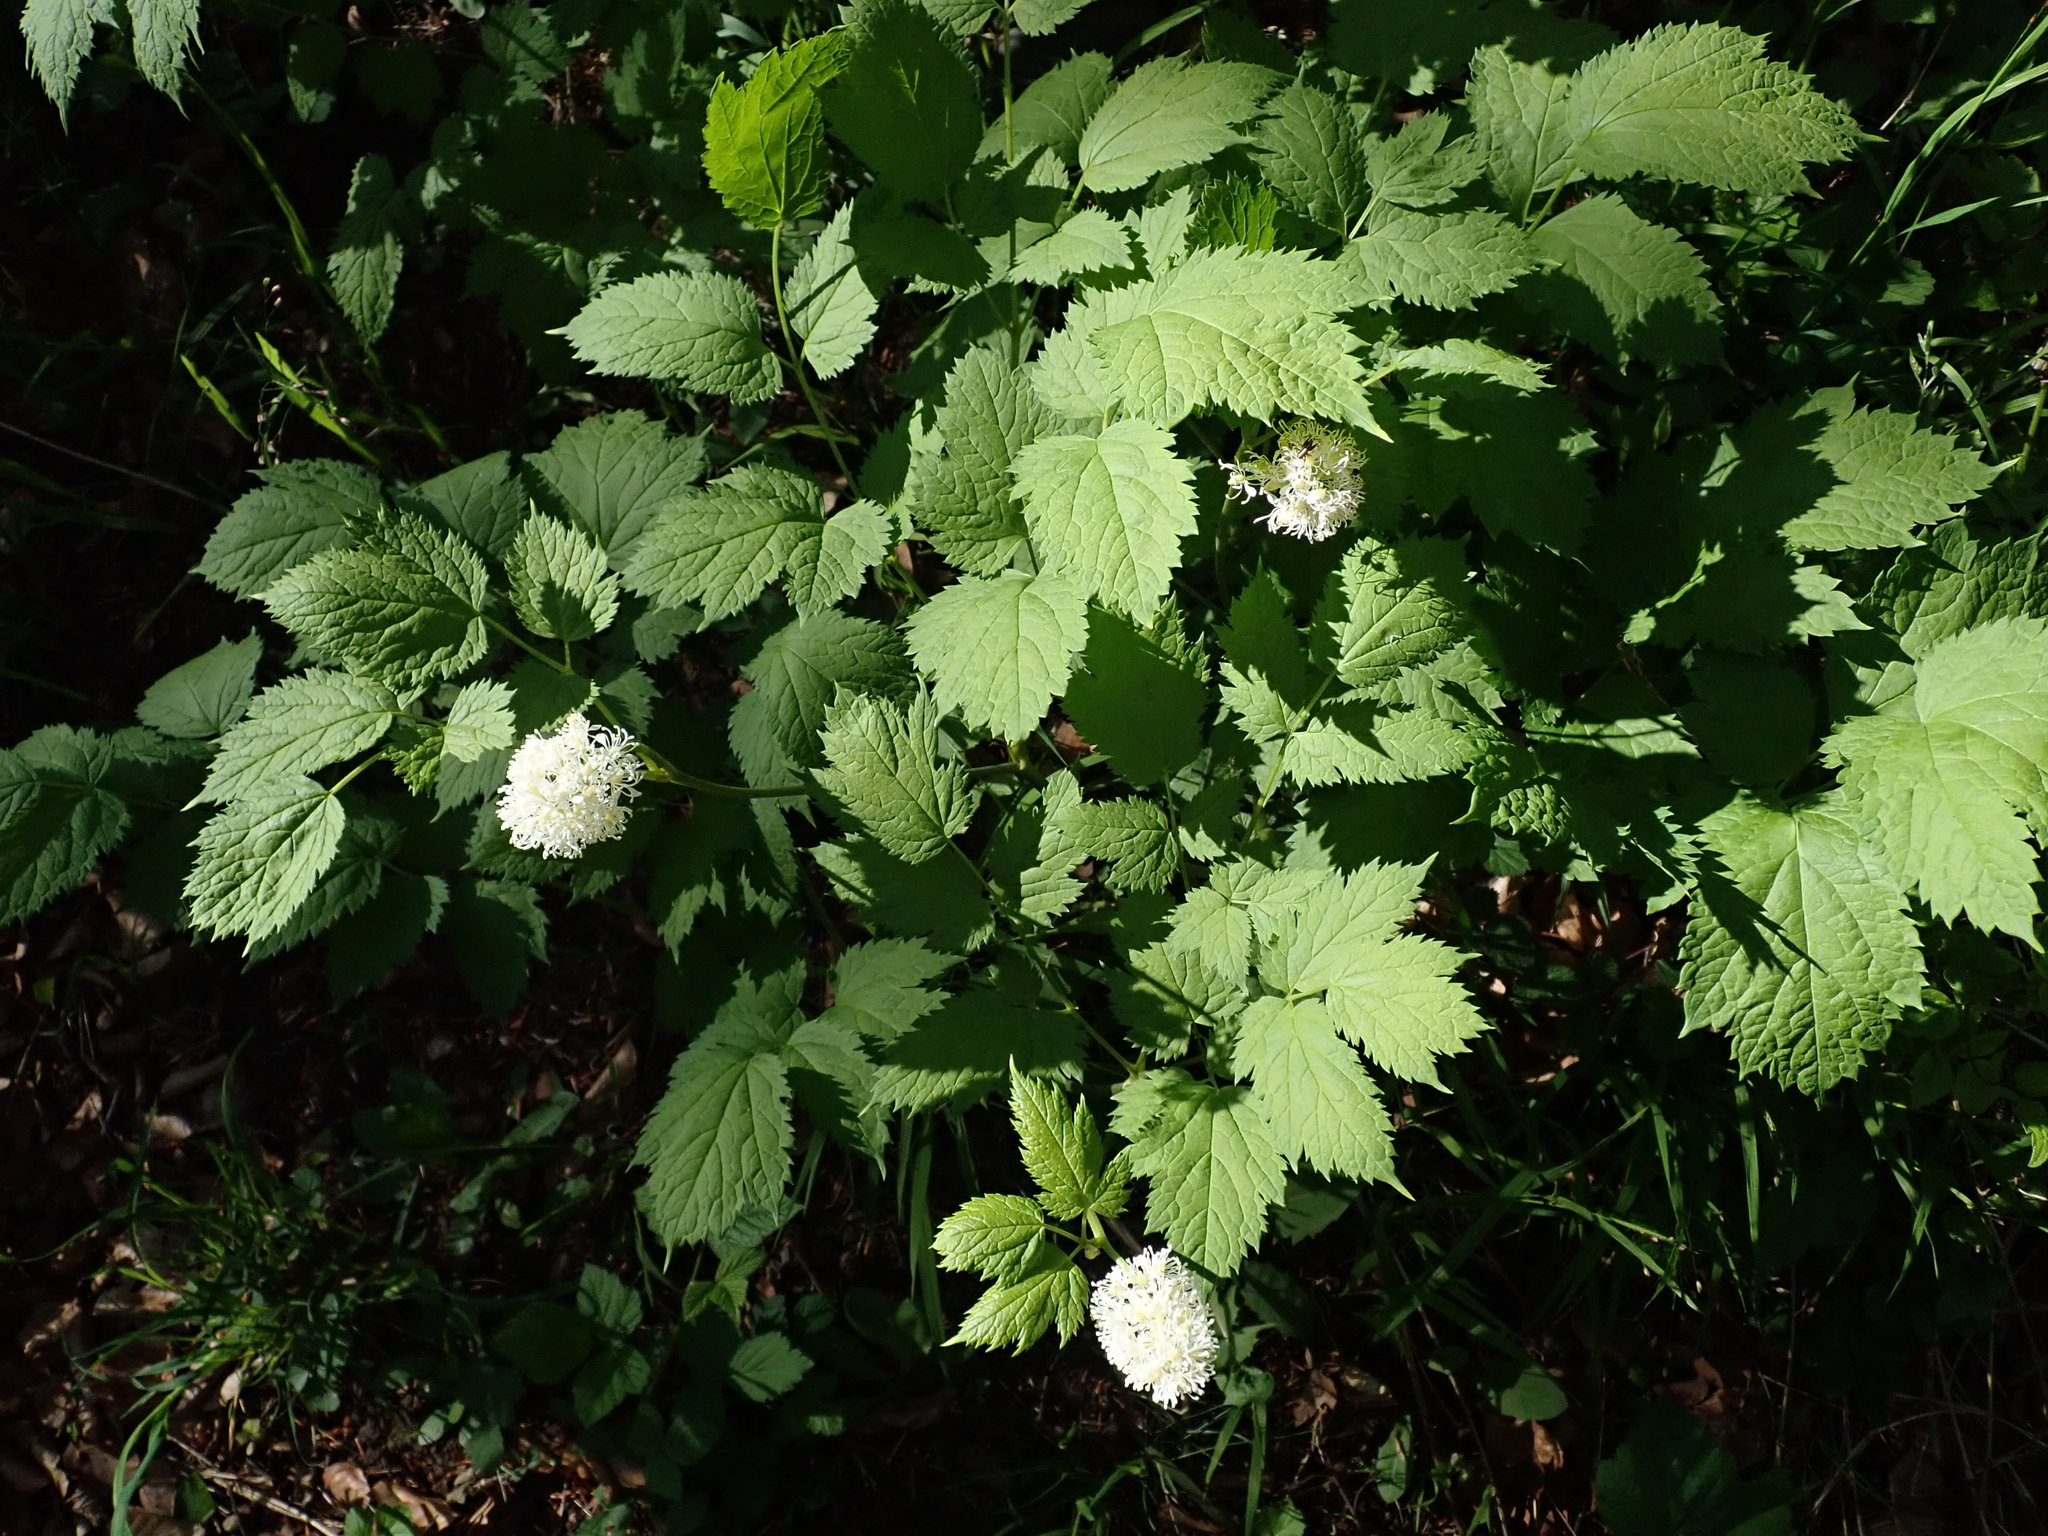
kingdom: Plantae
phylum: Tracheophyta
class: Magnoliopsida
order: Ranunculales
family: Ranunculaceae
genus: Actaea
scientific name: Actaea spicata
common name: Baneberry
